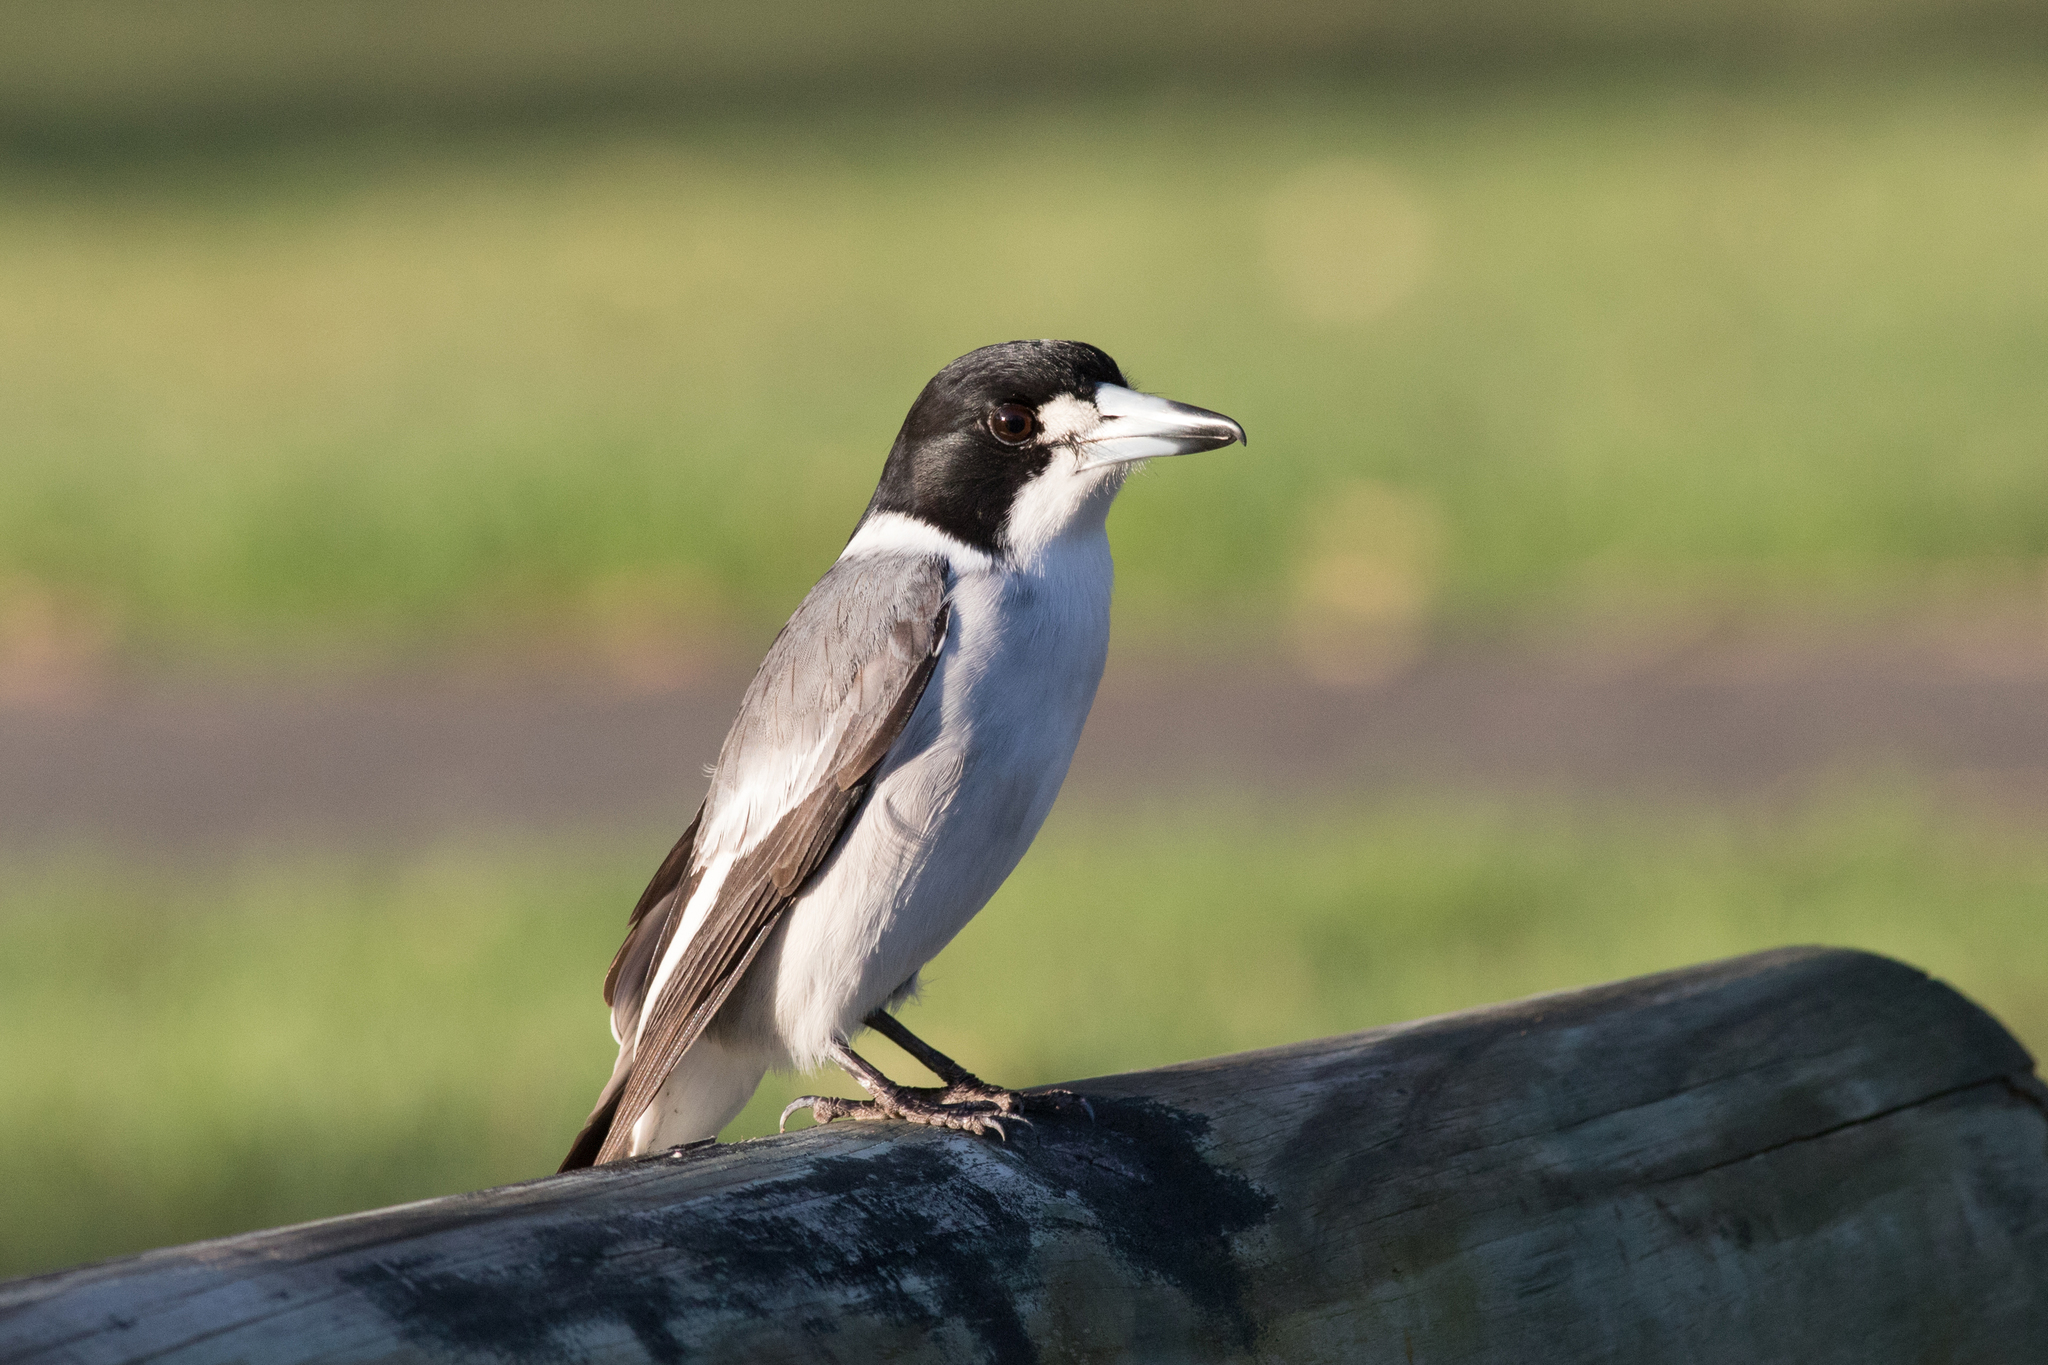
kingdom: Animalia
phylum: Chordata
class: Aves
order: Passeriformes
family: Cracticidae
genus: Cracticus
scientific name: Cracticus torquatus
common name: Grey butcherbird
